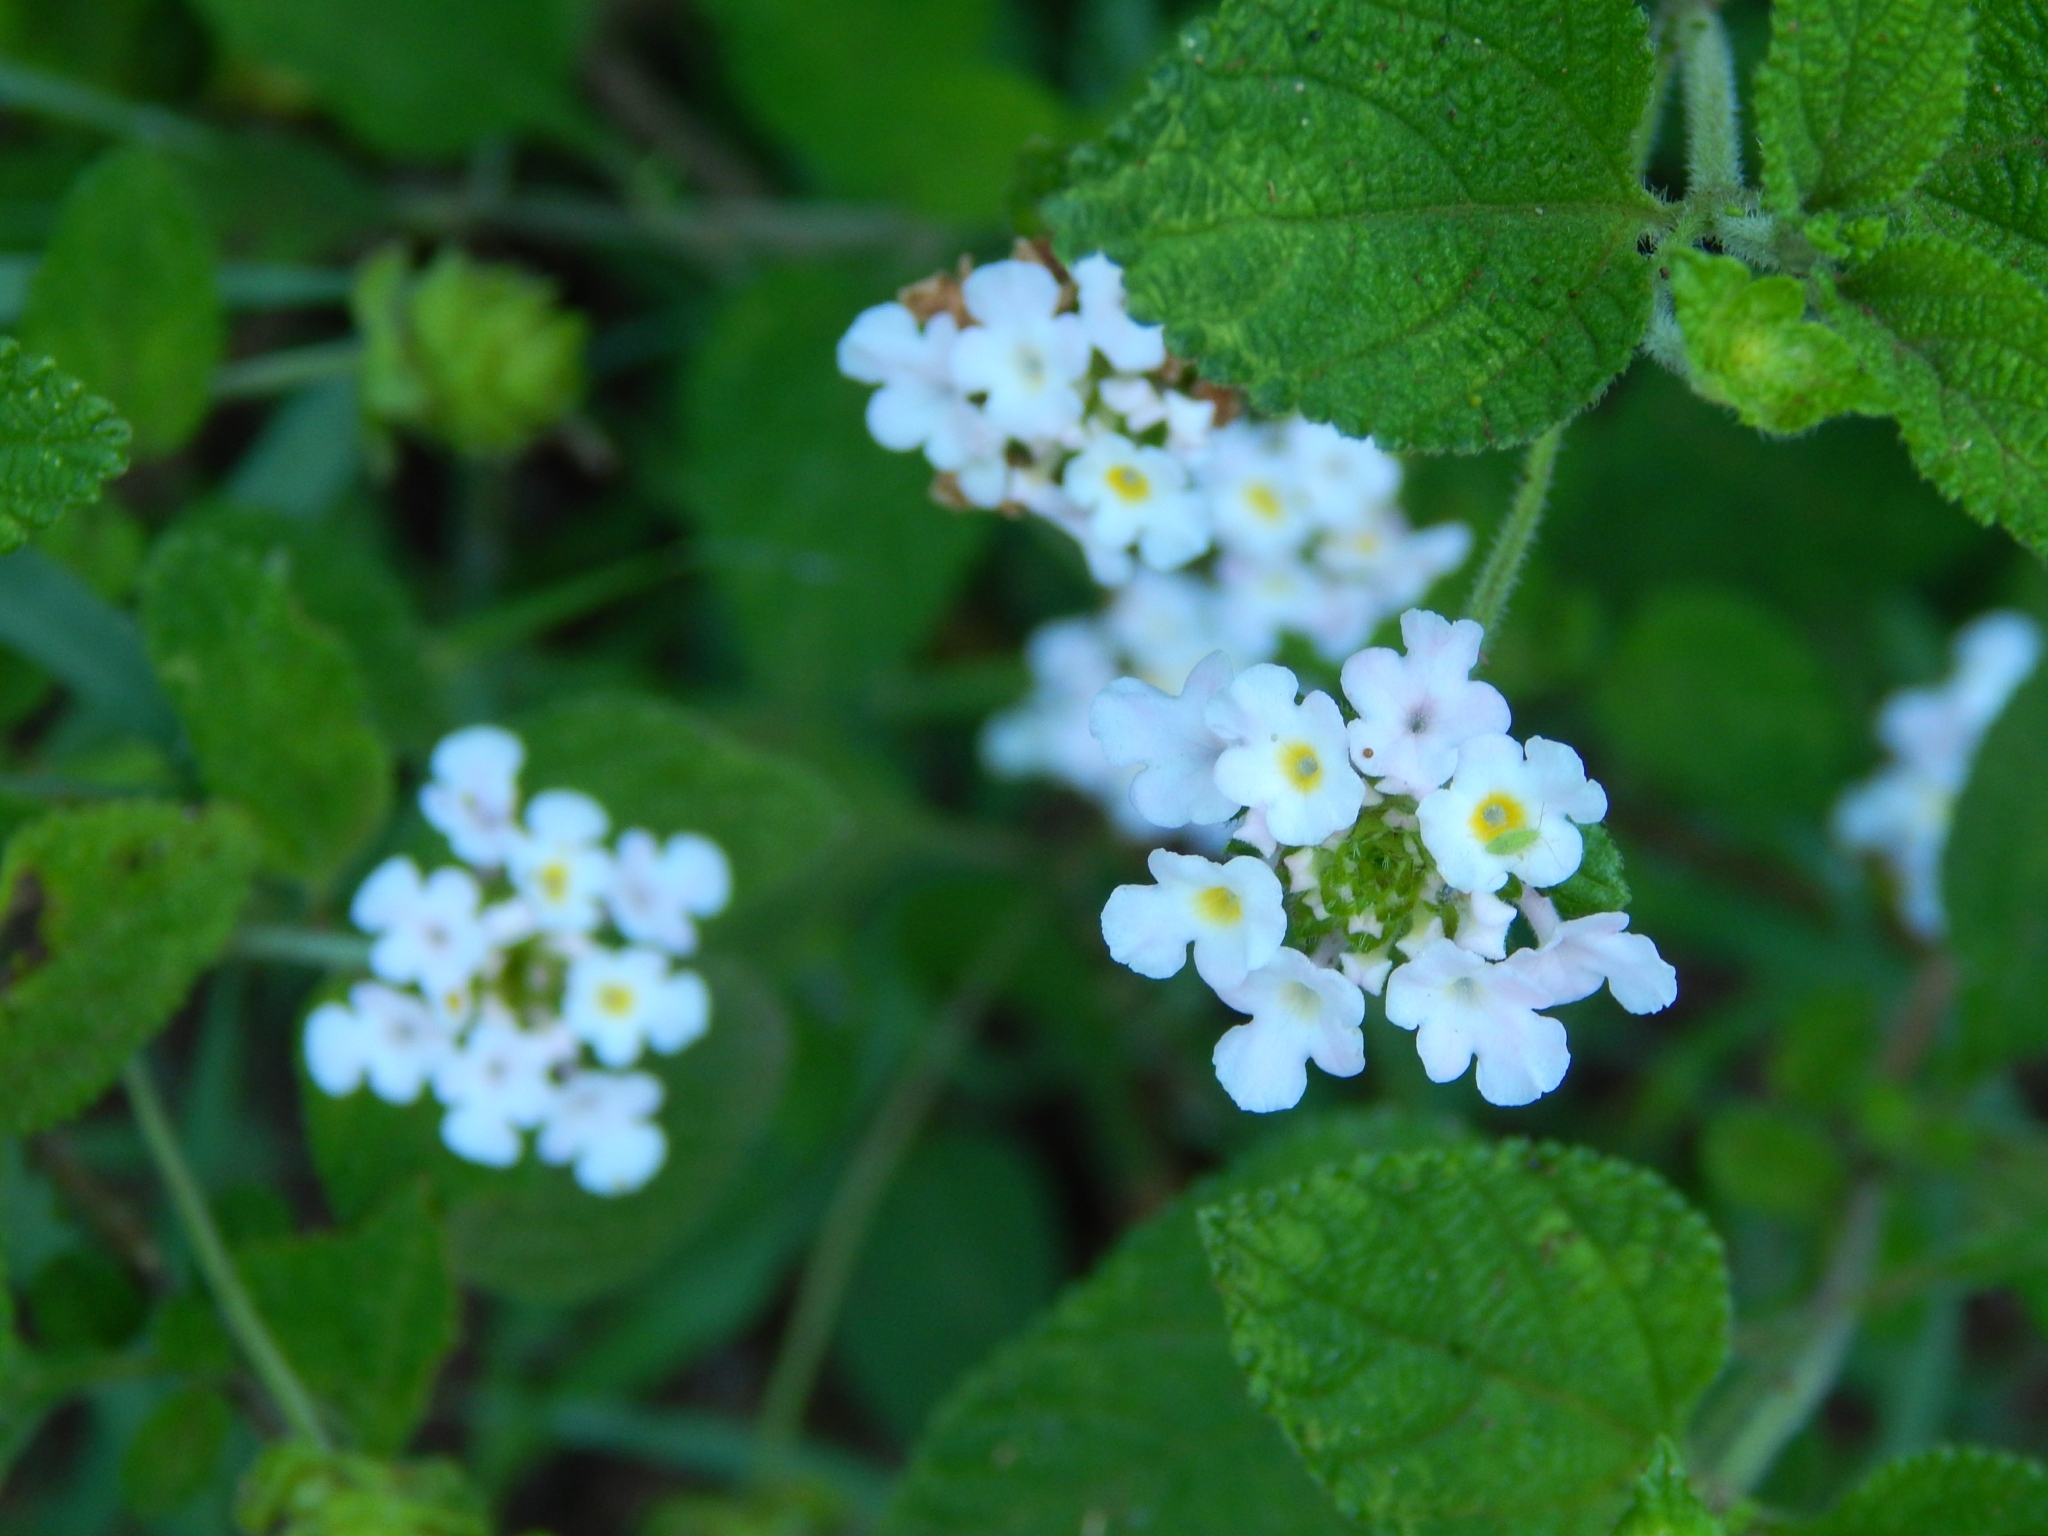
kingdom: Plantae
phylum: Tracheophyta
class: Magnoliopsida
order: Lamiales
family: Verbenaceae
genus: Lantana
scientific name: Lantana velutina
